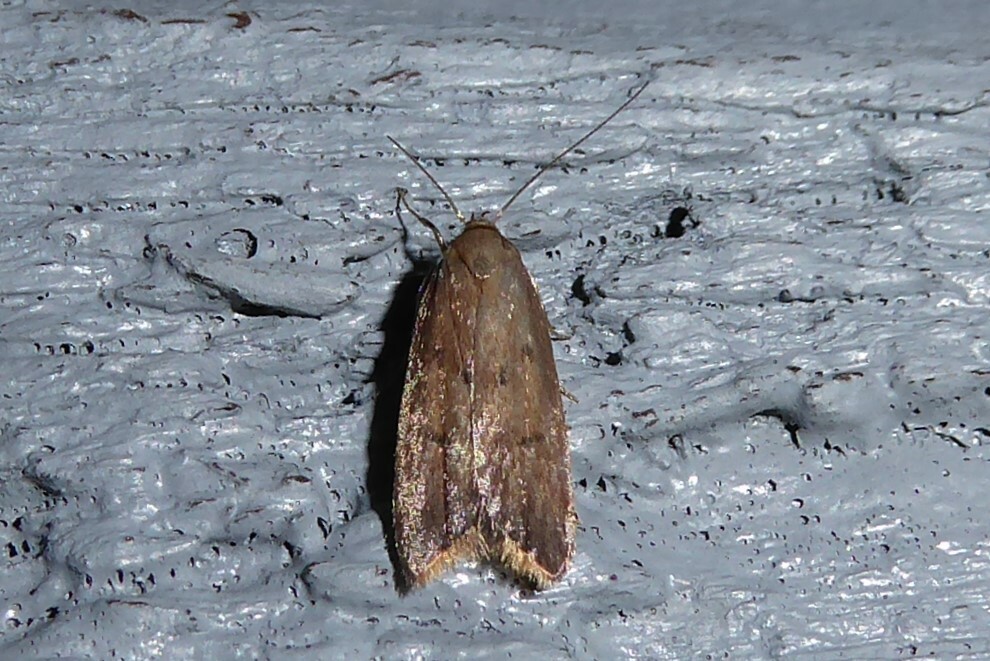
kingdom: Animalia
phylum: Arthropoda
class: Insecta
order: Lepidoptera
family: Oecophoridae
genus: Tachystola
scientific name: Tachystola acroxantha
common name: Ruddy streak
